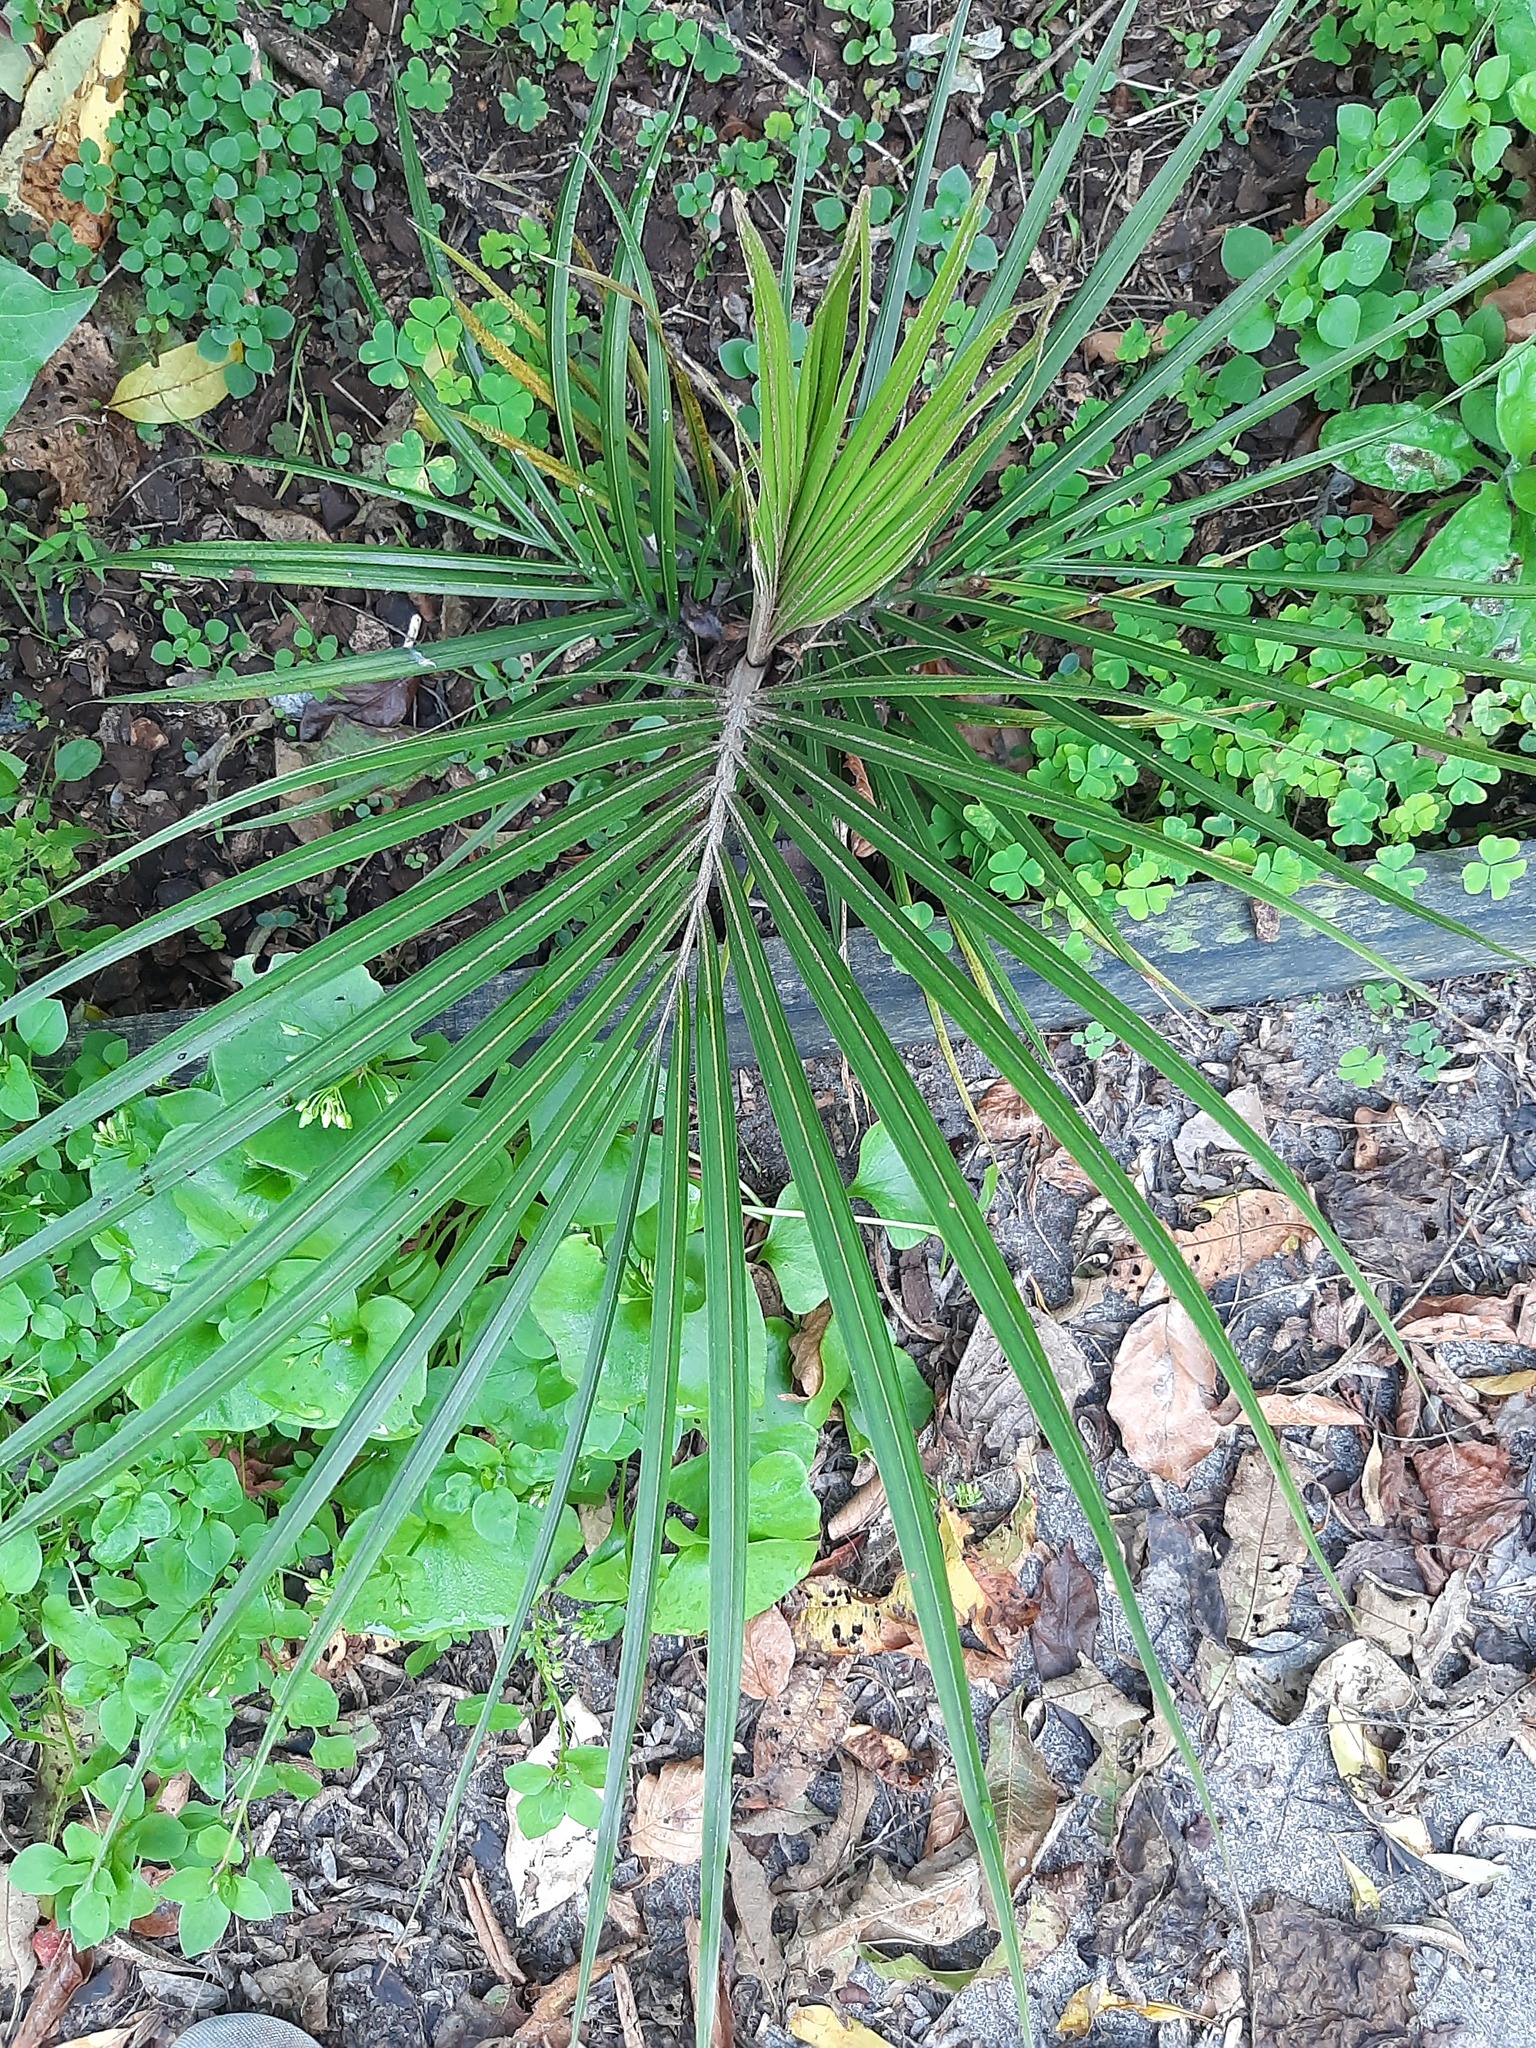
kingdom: Plantae
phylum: Tracheophyta
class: Liliopsida
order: Arecales
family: Arecaceae
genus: Rhopalostylis
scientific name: Rhopalostylis sapida
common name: Feather-duster palm
